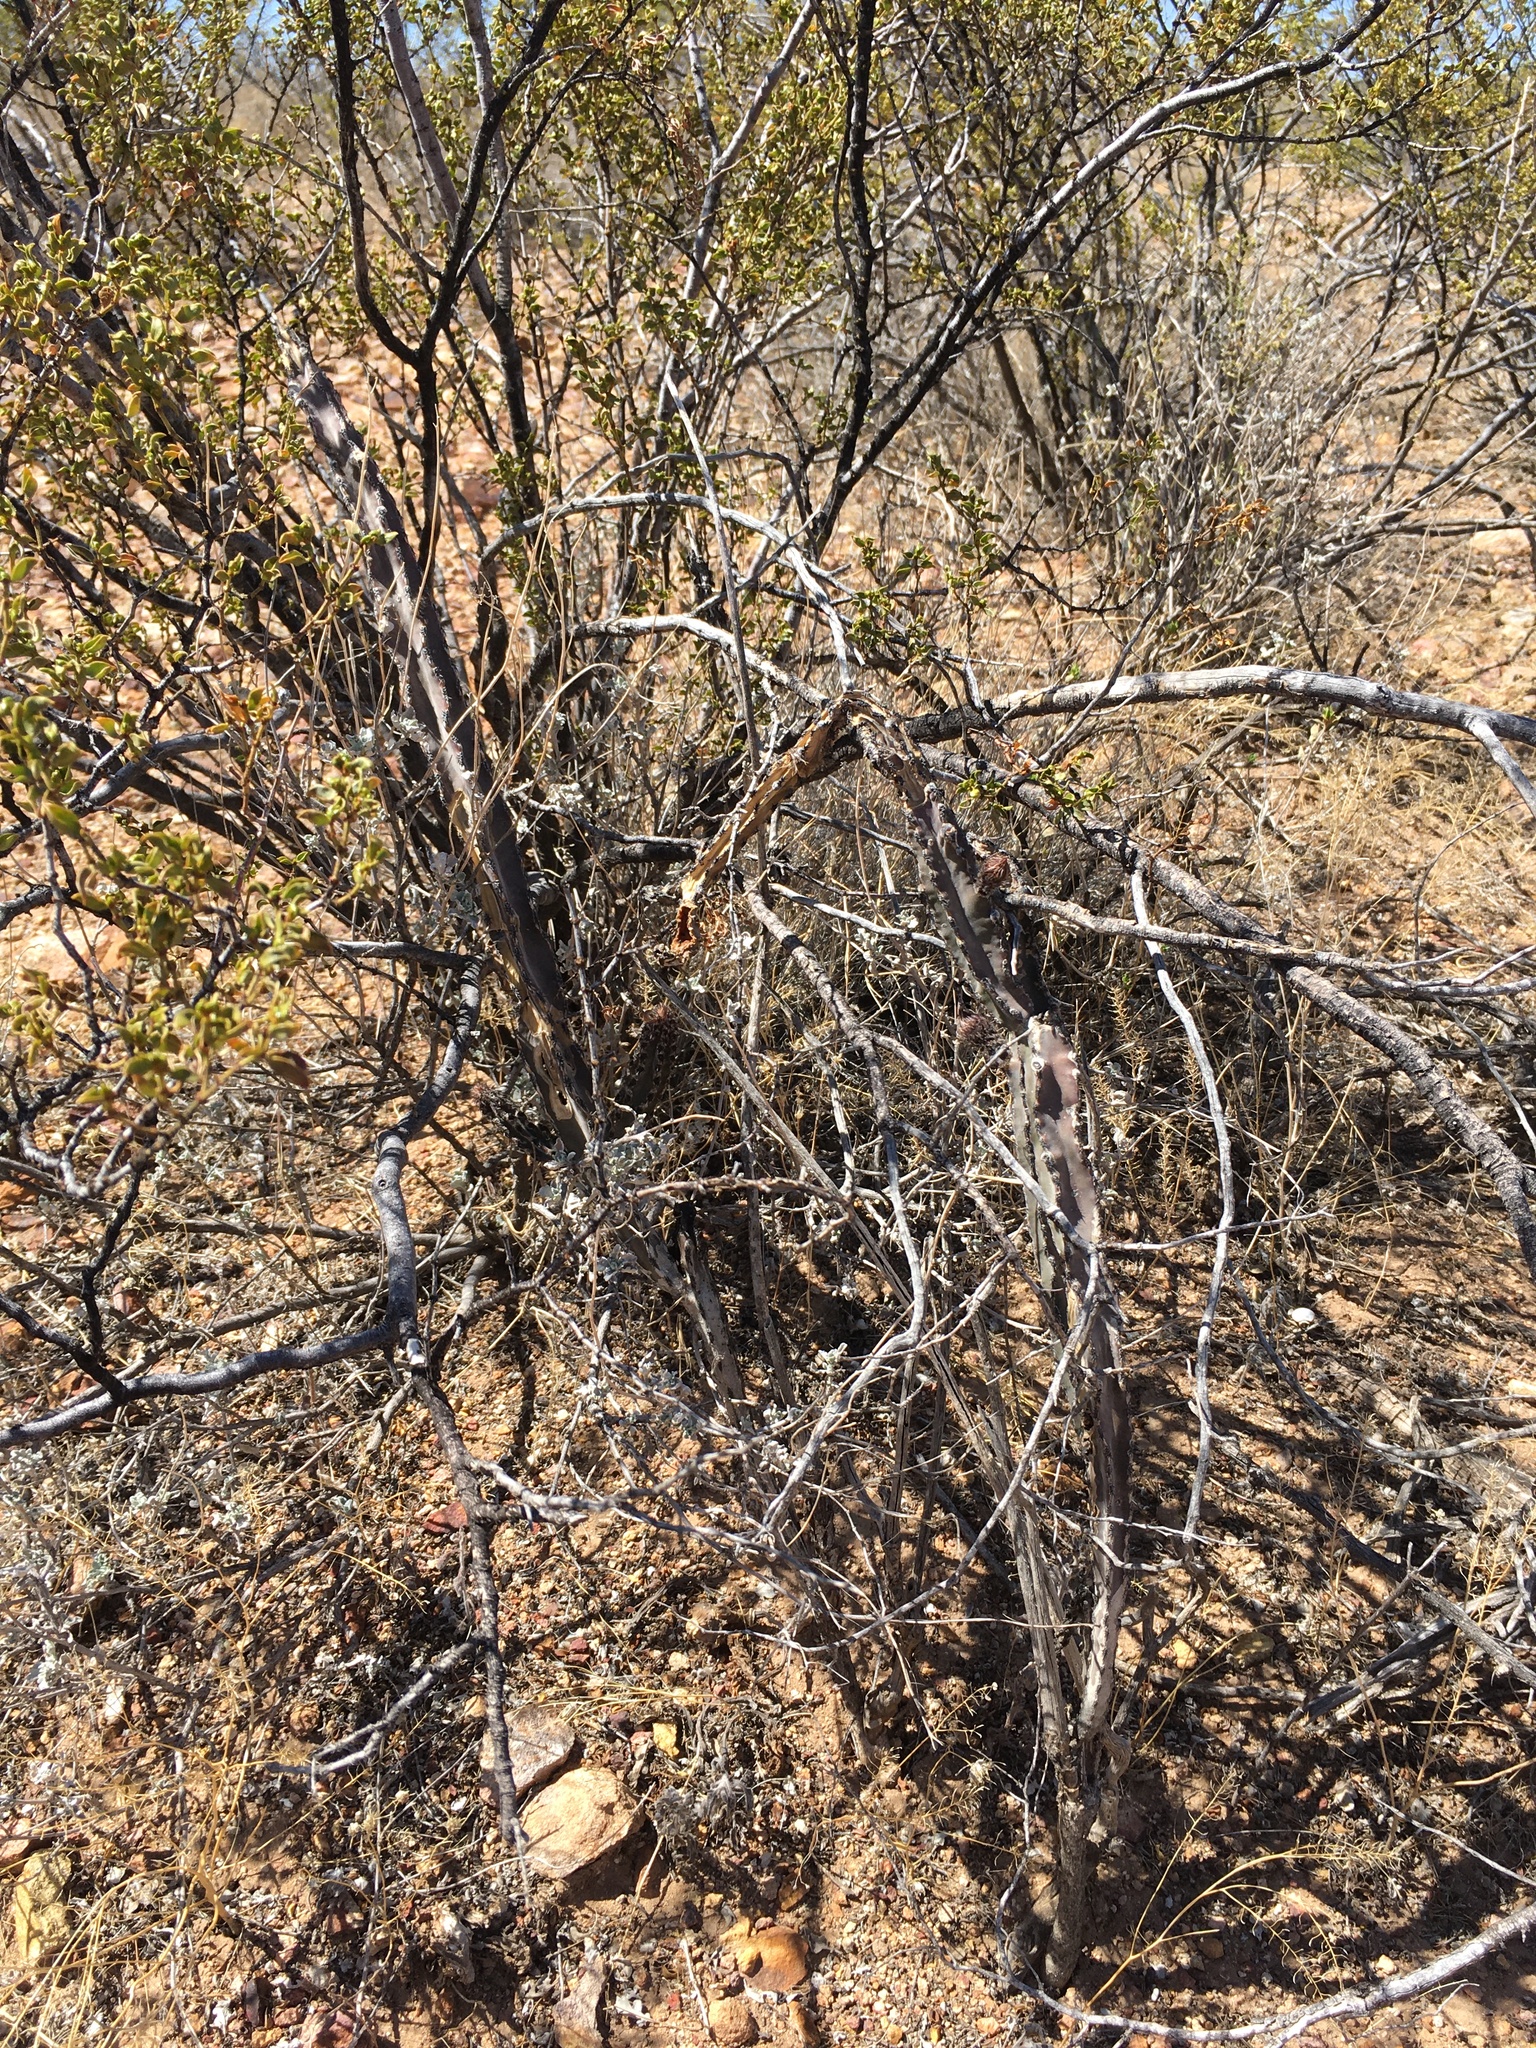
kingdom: Plantae
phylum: Tracheophyta
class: Magnoliopsida
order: Caryophyllales
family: Cactaceae
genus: Peniocereus
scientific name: Peniocereus greggii
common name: Desert night-blooming cereus
